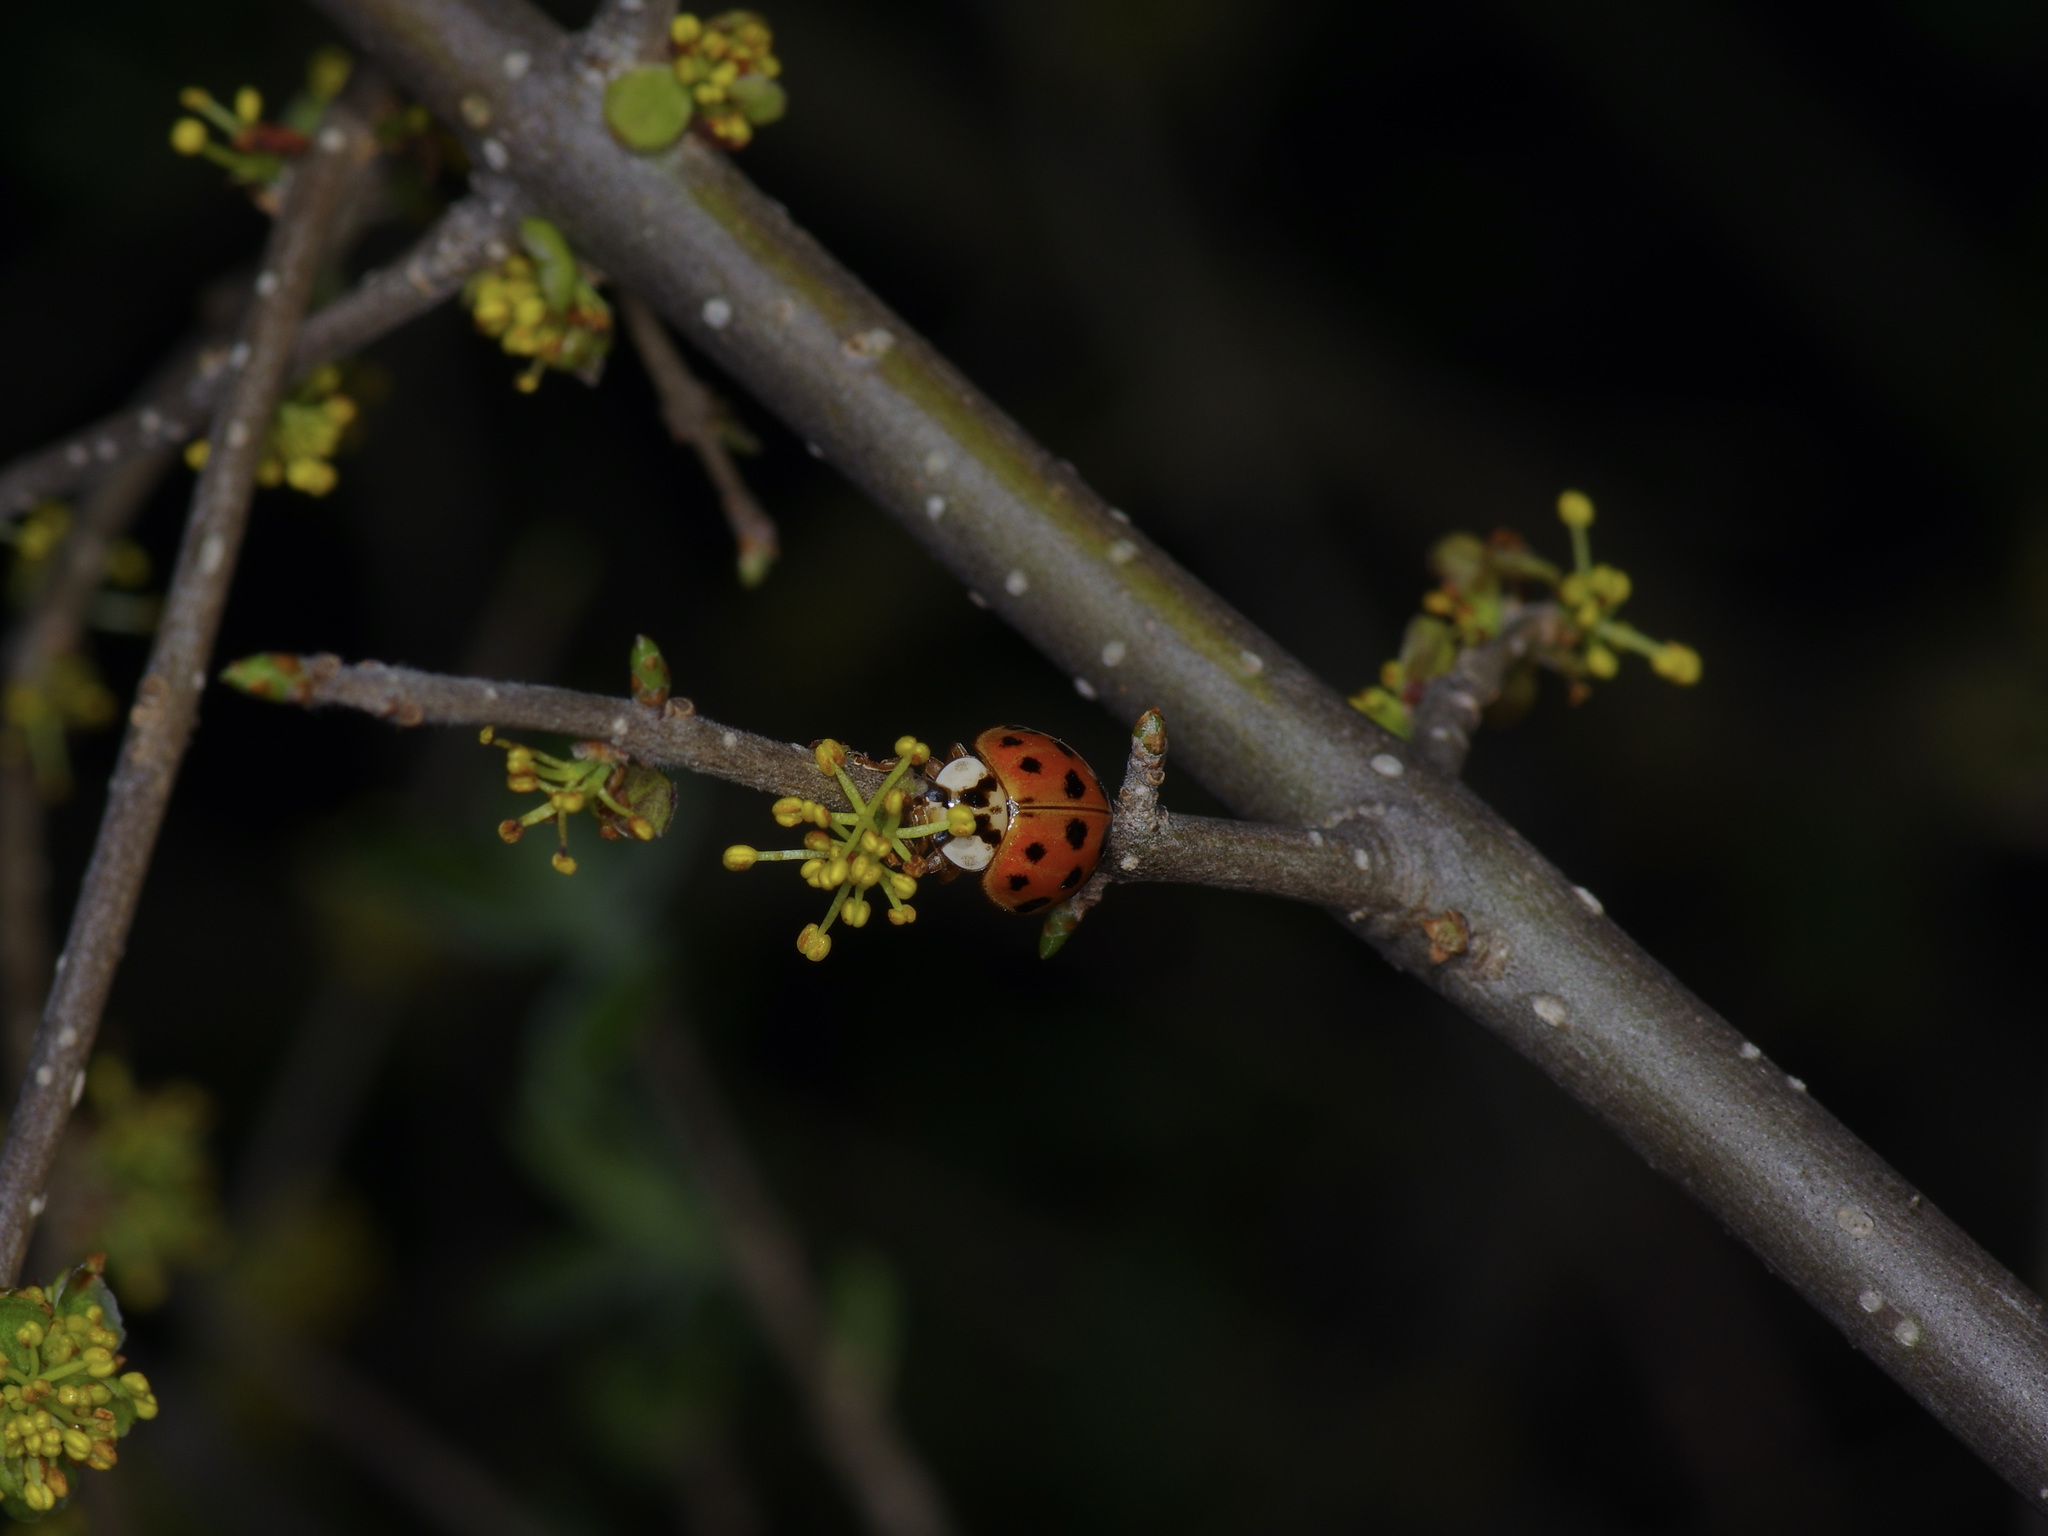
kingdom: Animalia
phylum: Arthropoda
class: Insecta
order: Coleoptera
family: Coccinellidae
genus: Harmonia
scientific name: Harmonia axyridis
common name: Harlequin ladybird
